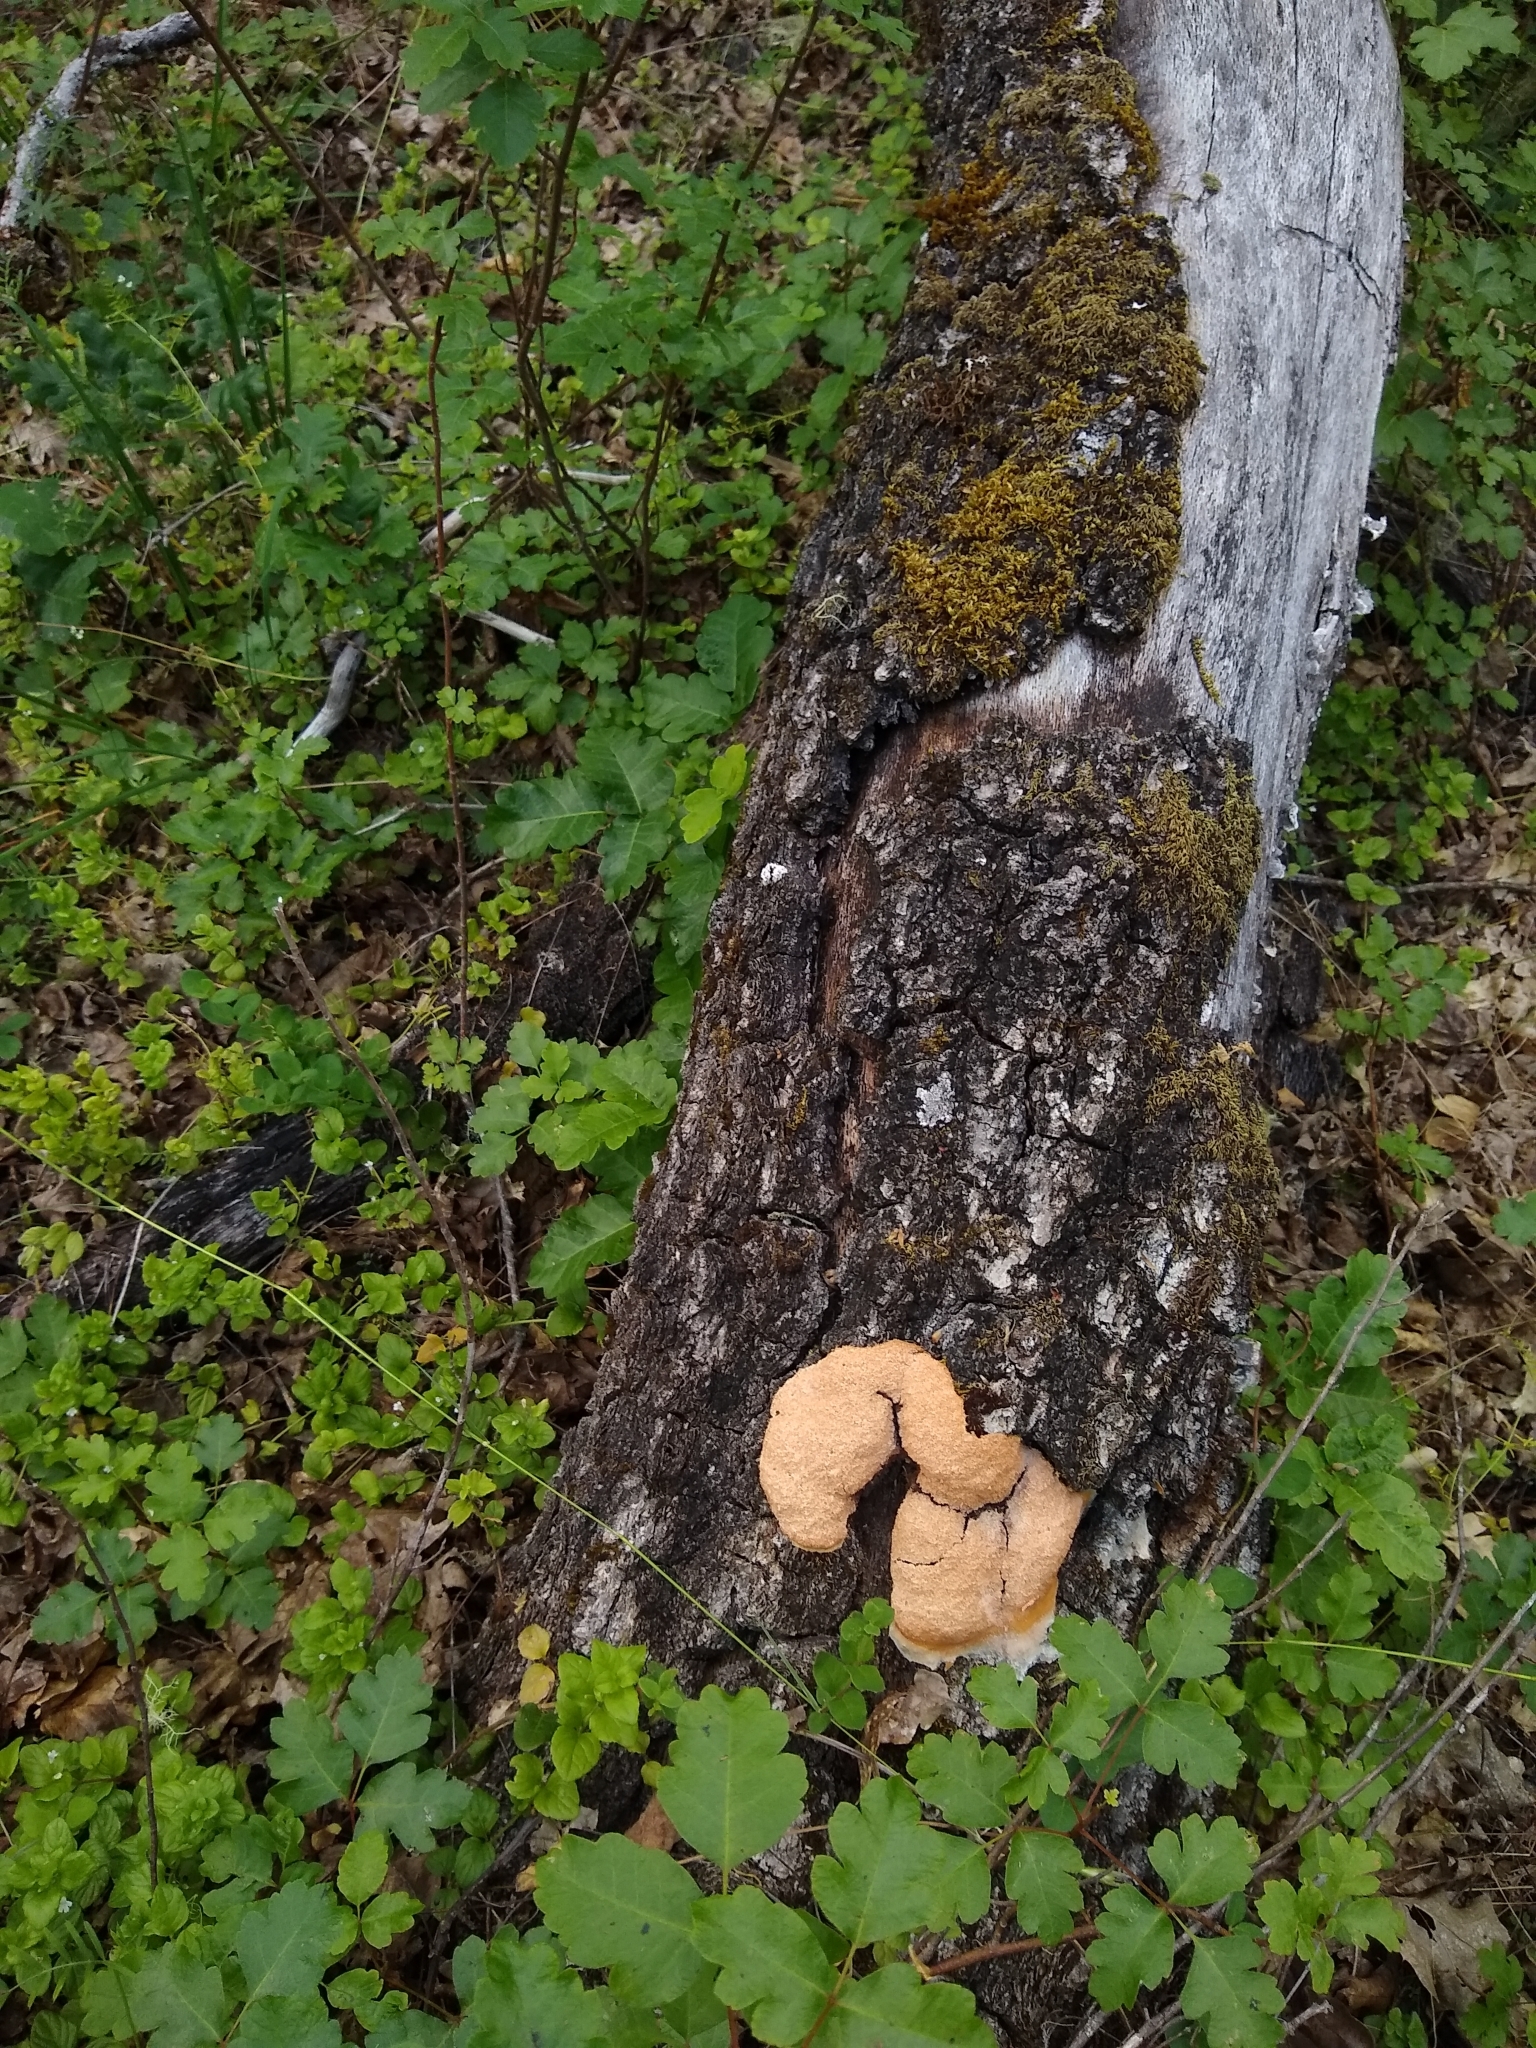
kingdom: Protozoa
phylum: Mycetozoa
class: Myxomycetes
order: Physarales
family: Physaraceae
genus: Fuligo
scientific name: Fuligo septica
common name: Dog vomit slime mold
